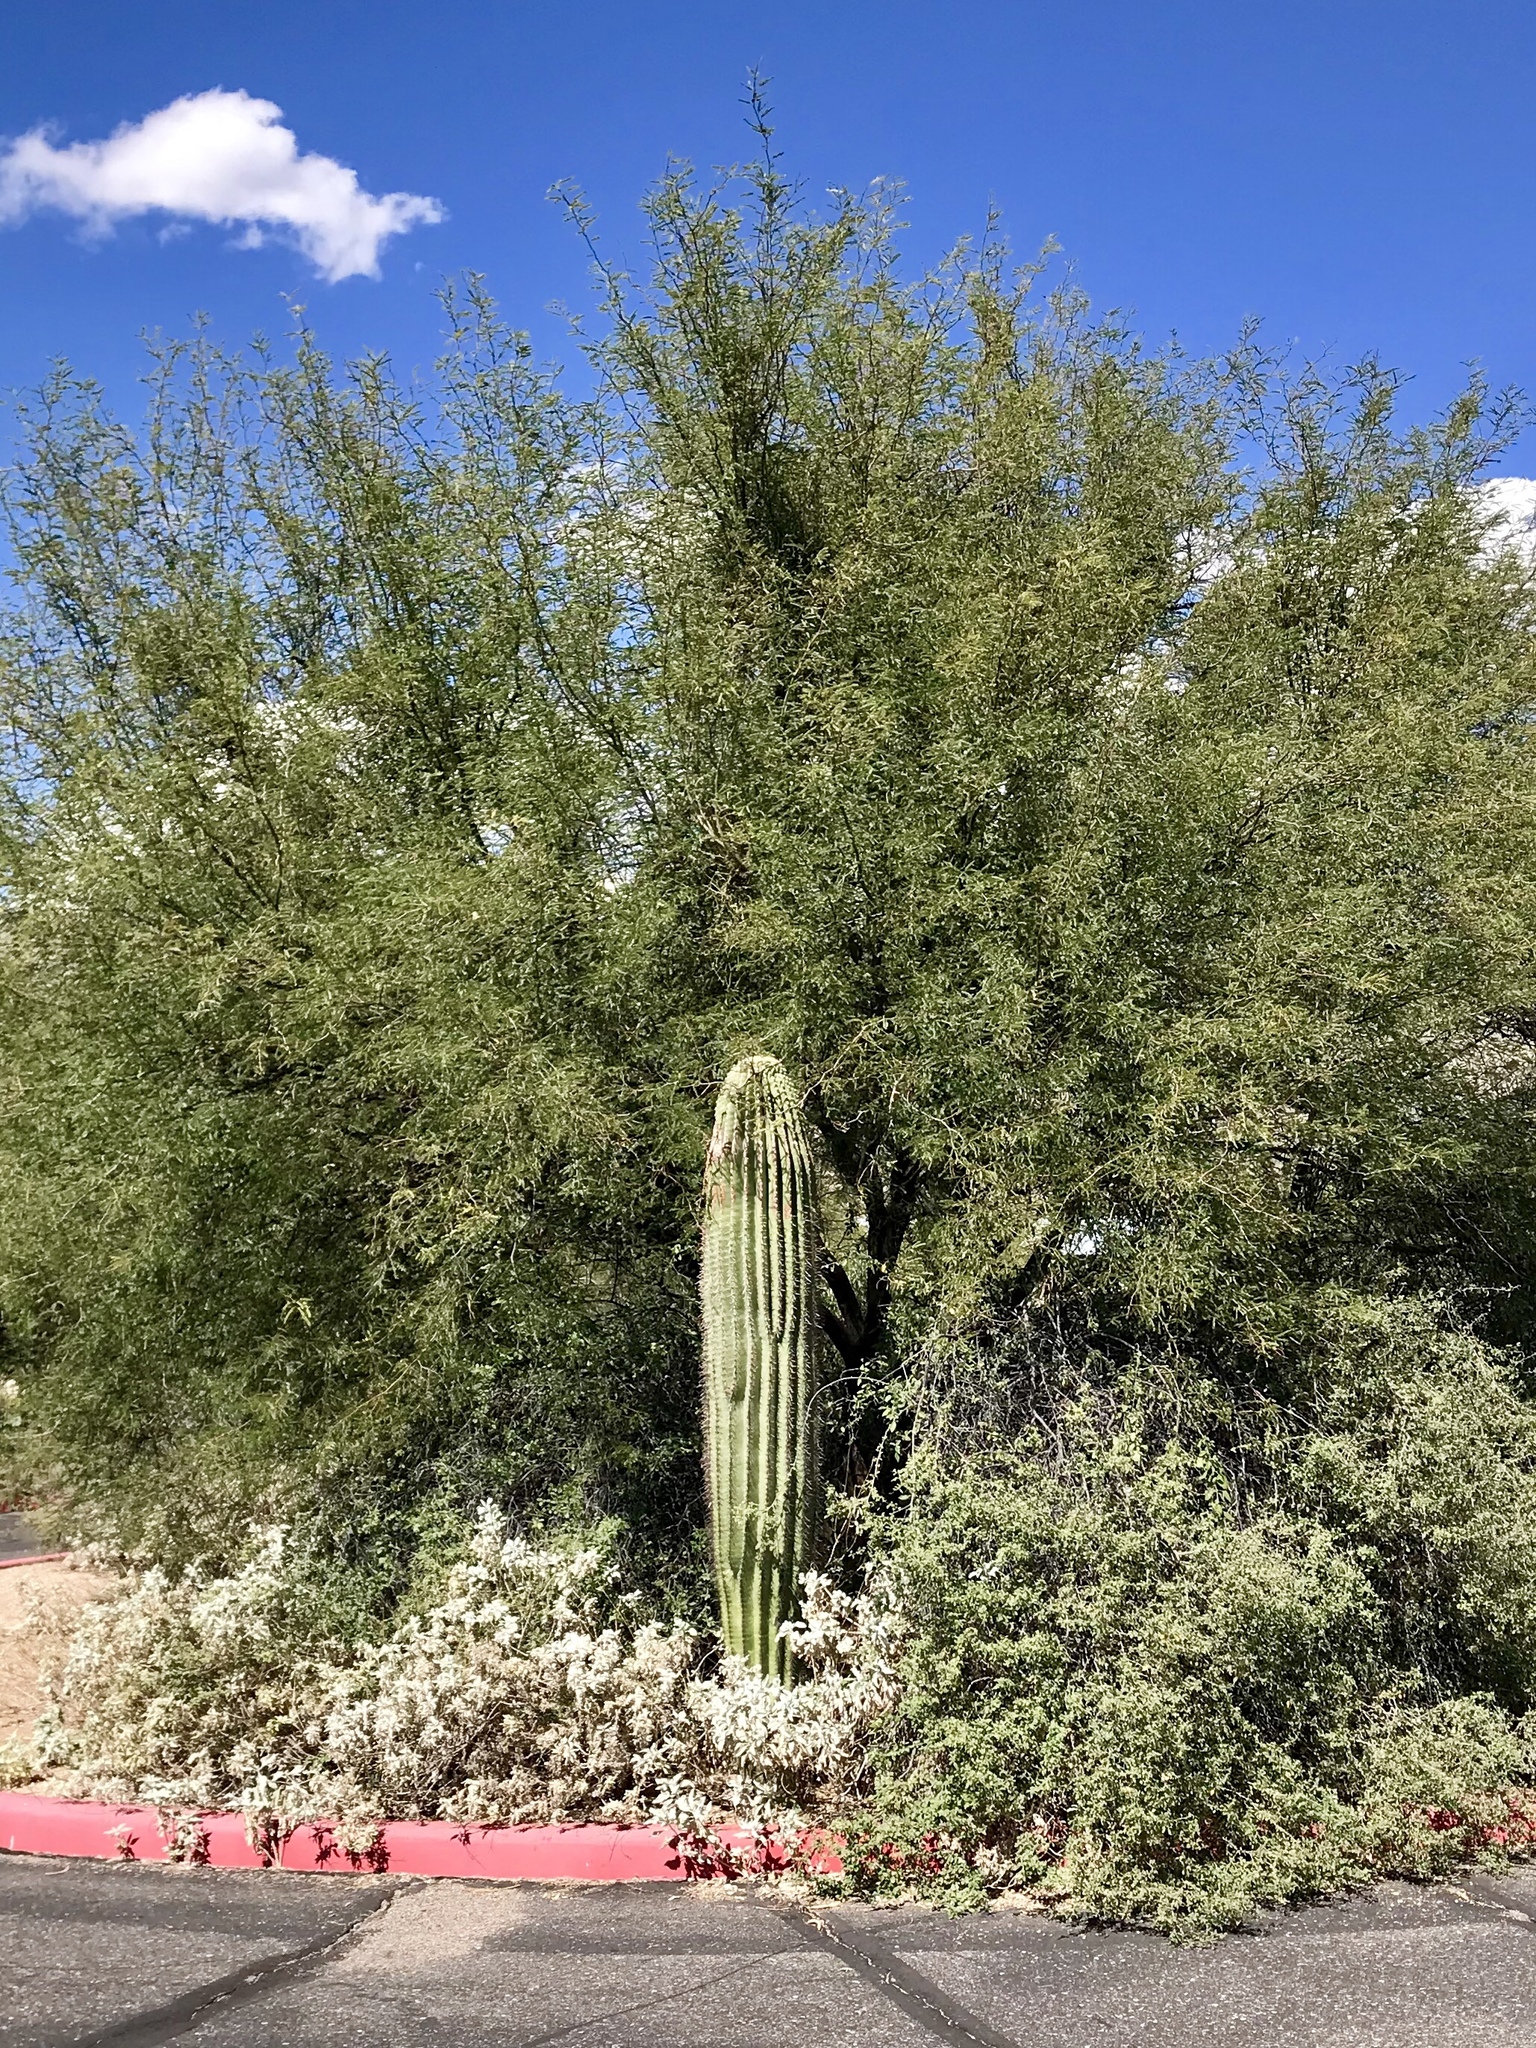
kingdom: Plantae
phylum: Tracheophyta
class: Magnoliopsida
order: Caryophyllales
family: Cactaceae
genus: Carnegiea
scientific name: Carnegiea gigantea
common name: Saguaro
